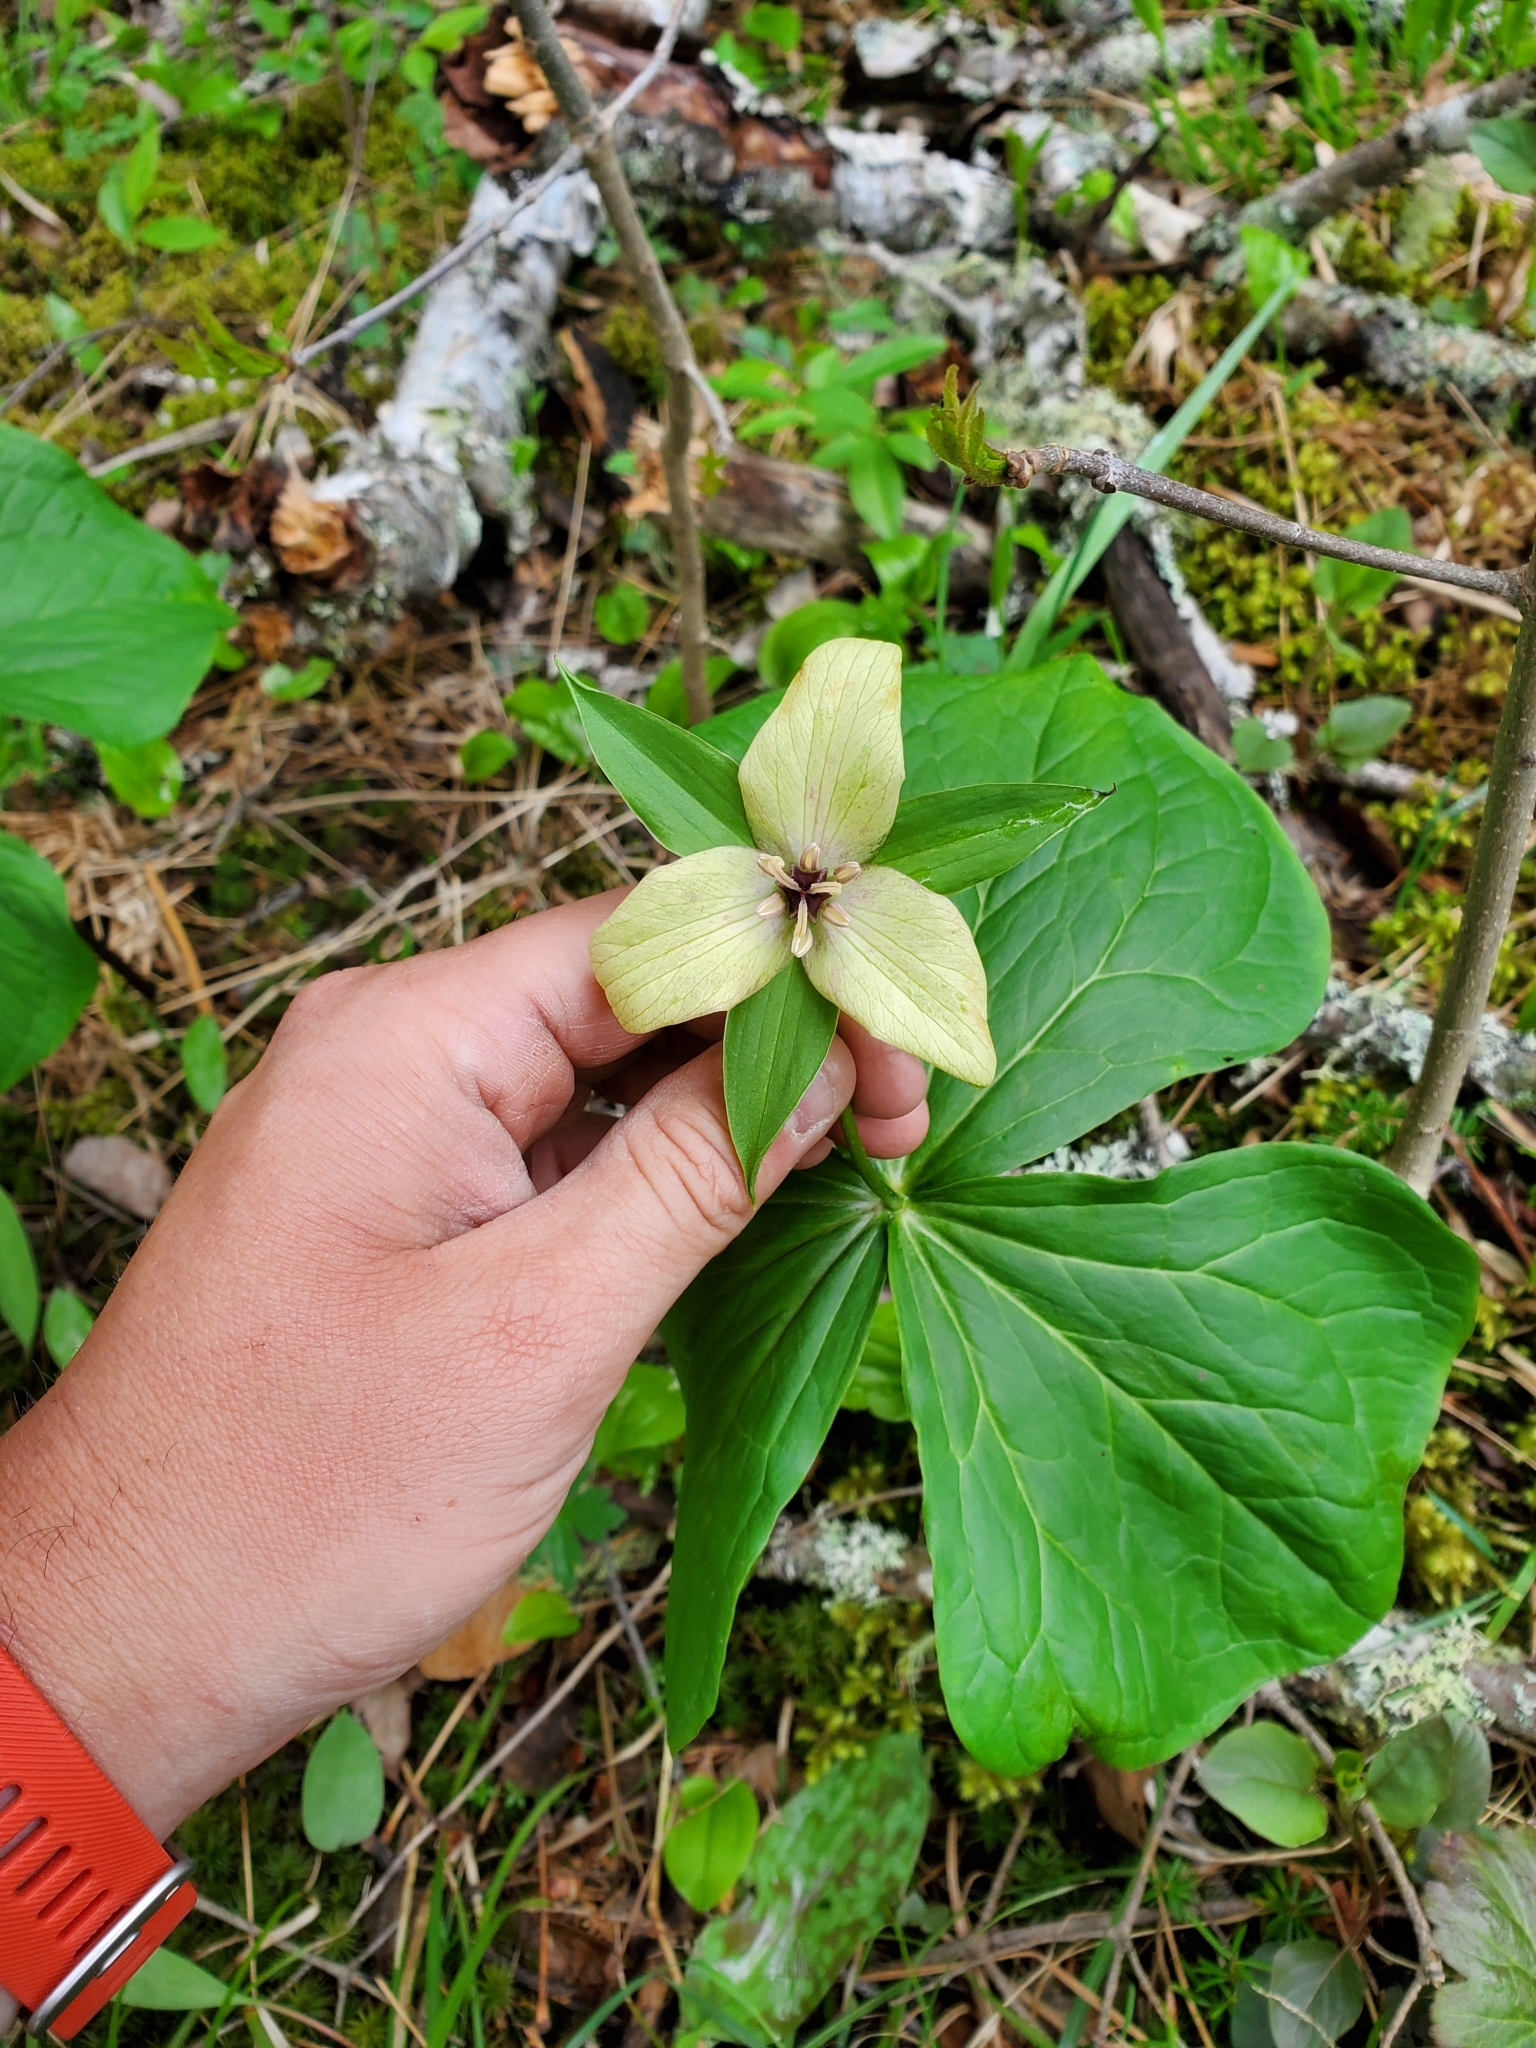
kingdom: Plantae
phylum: Tracheophyta
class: Liliopsida
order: Liliales
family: Melanthiaceae
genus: Trillium
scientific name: Trillium erectum
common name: Purple trillium
